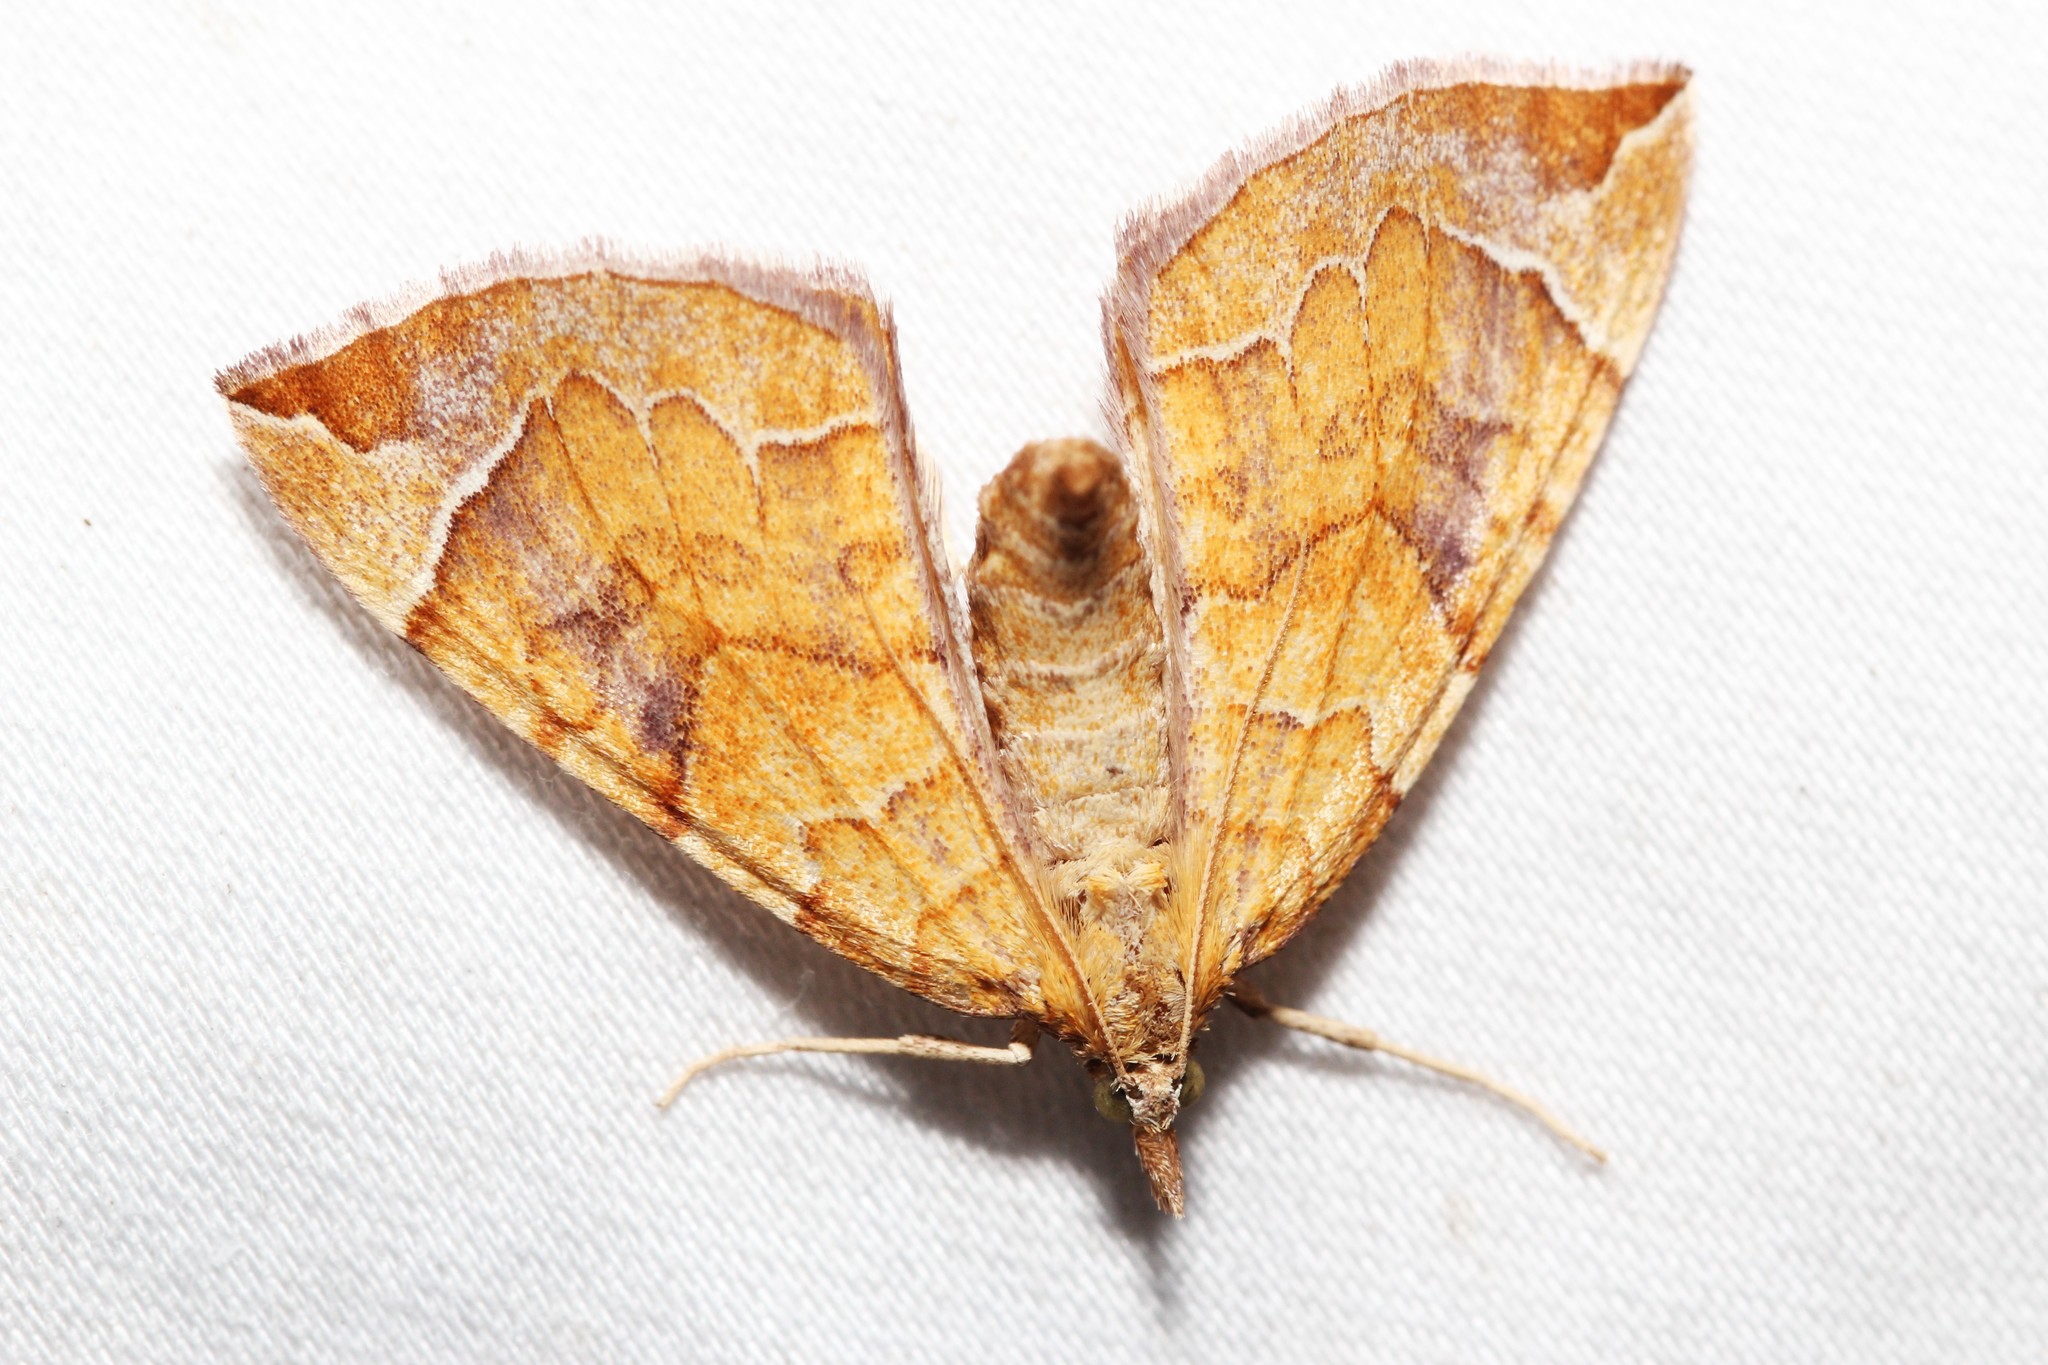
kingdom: Animalia
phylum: Arthropoda
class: Insecta
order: Lepidoptera
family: Geometridae
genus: Eulithis
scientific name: Eulithis testata
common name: Chevron
